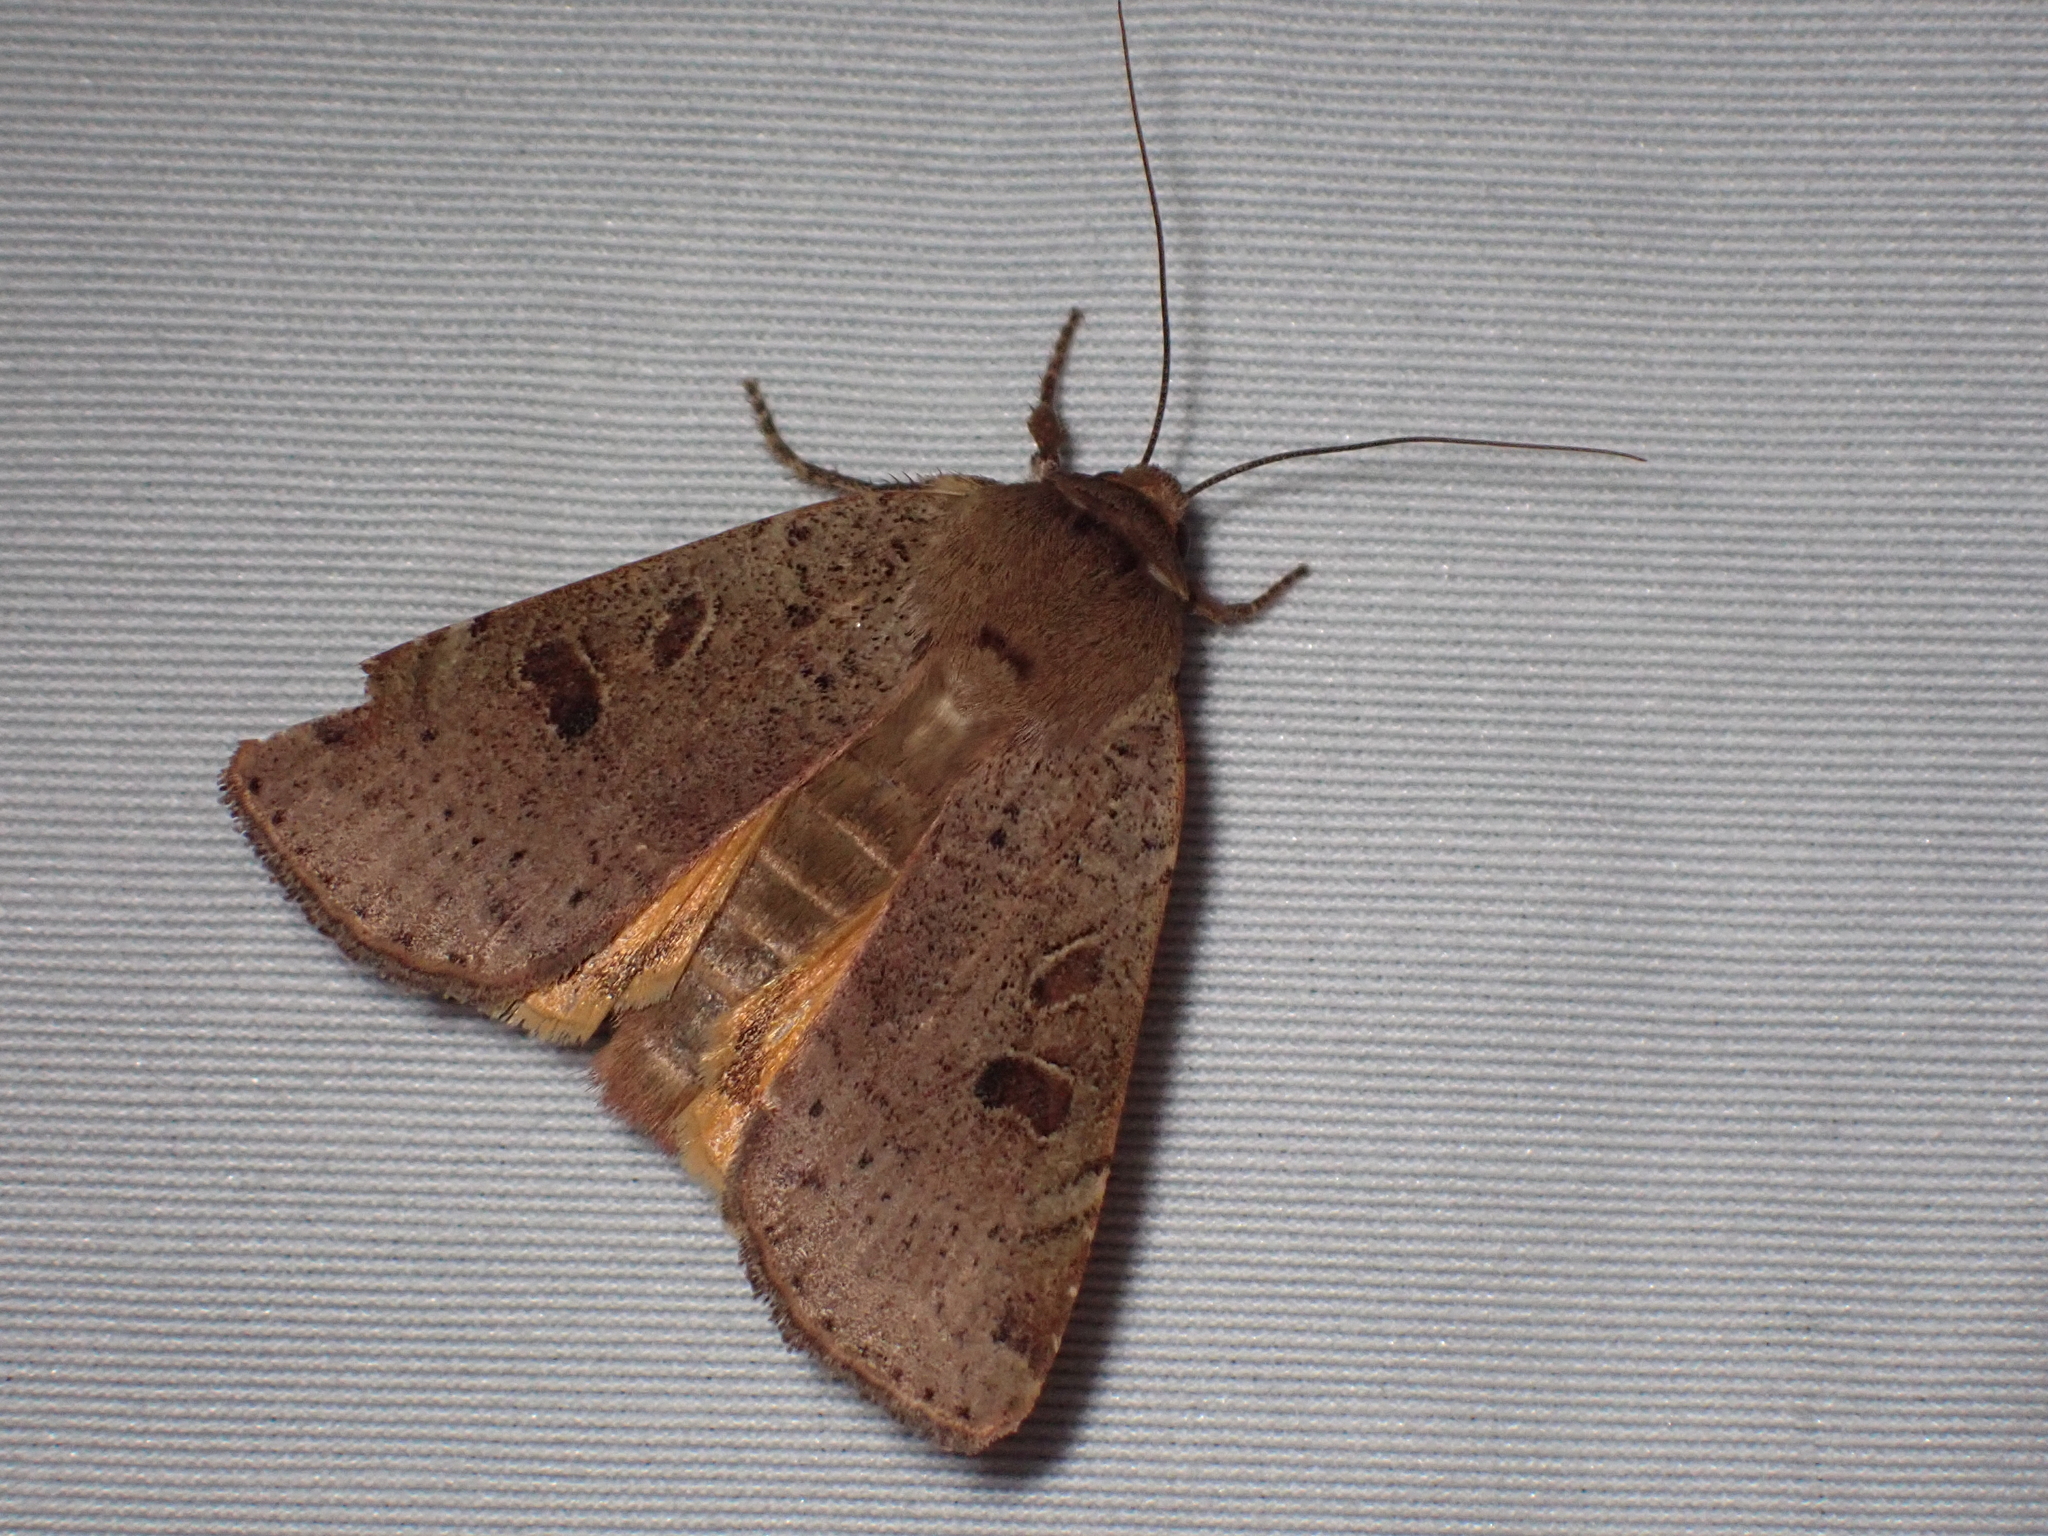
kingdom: Animalia
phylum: Arthropoda
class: Insecta
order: Lepidoptera
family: Noctuidae
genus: Noctua
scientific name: Noctua comes
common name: Lesser yellow underwing
